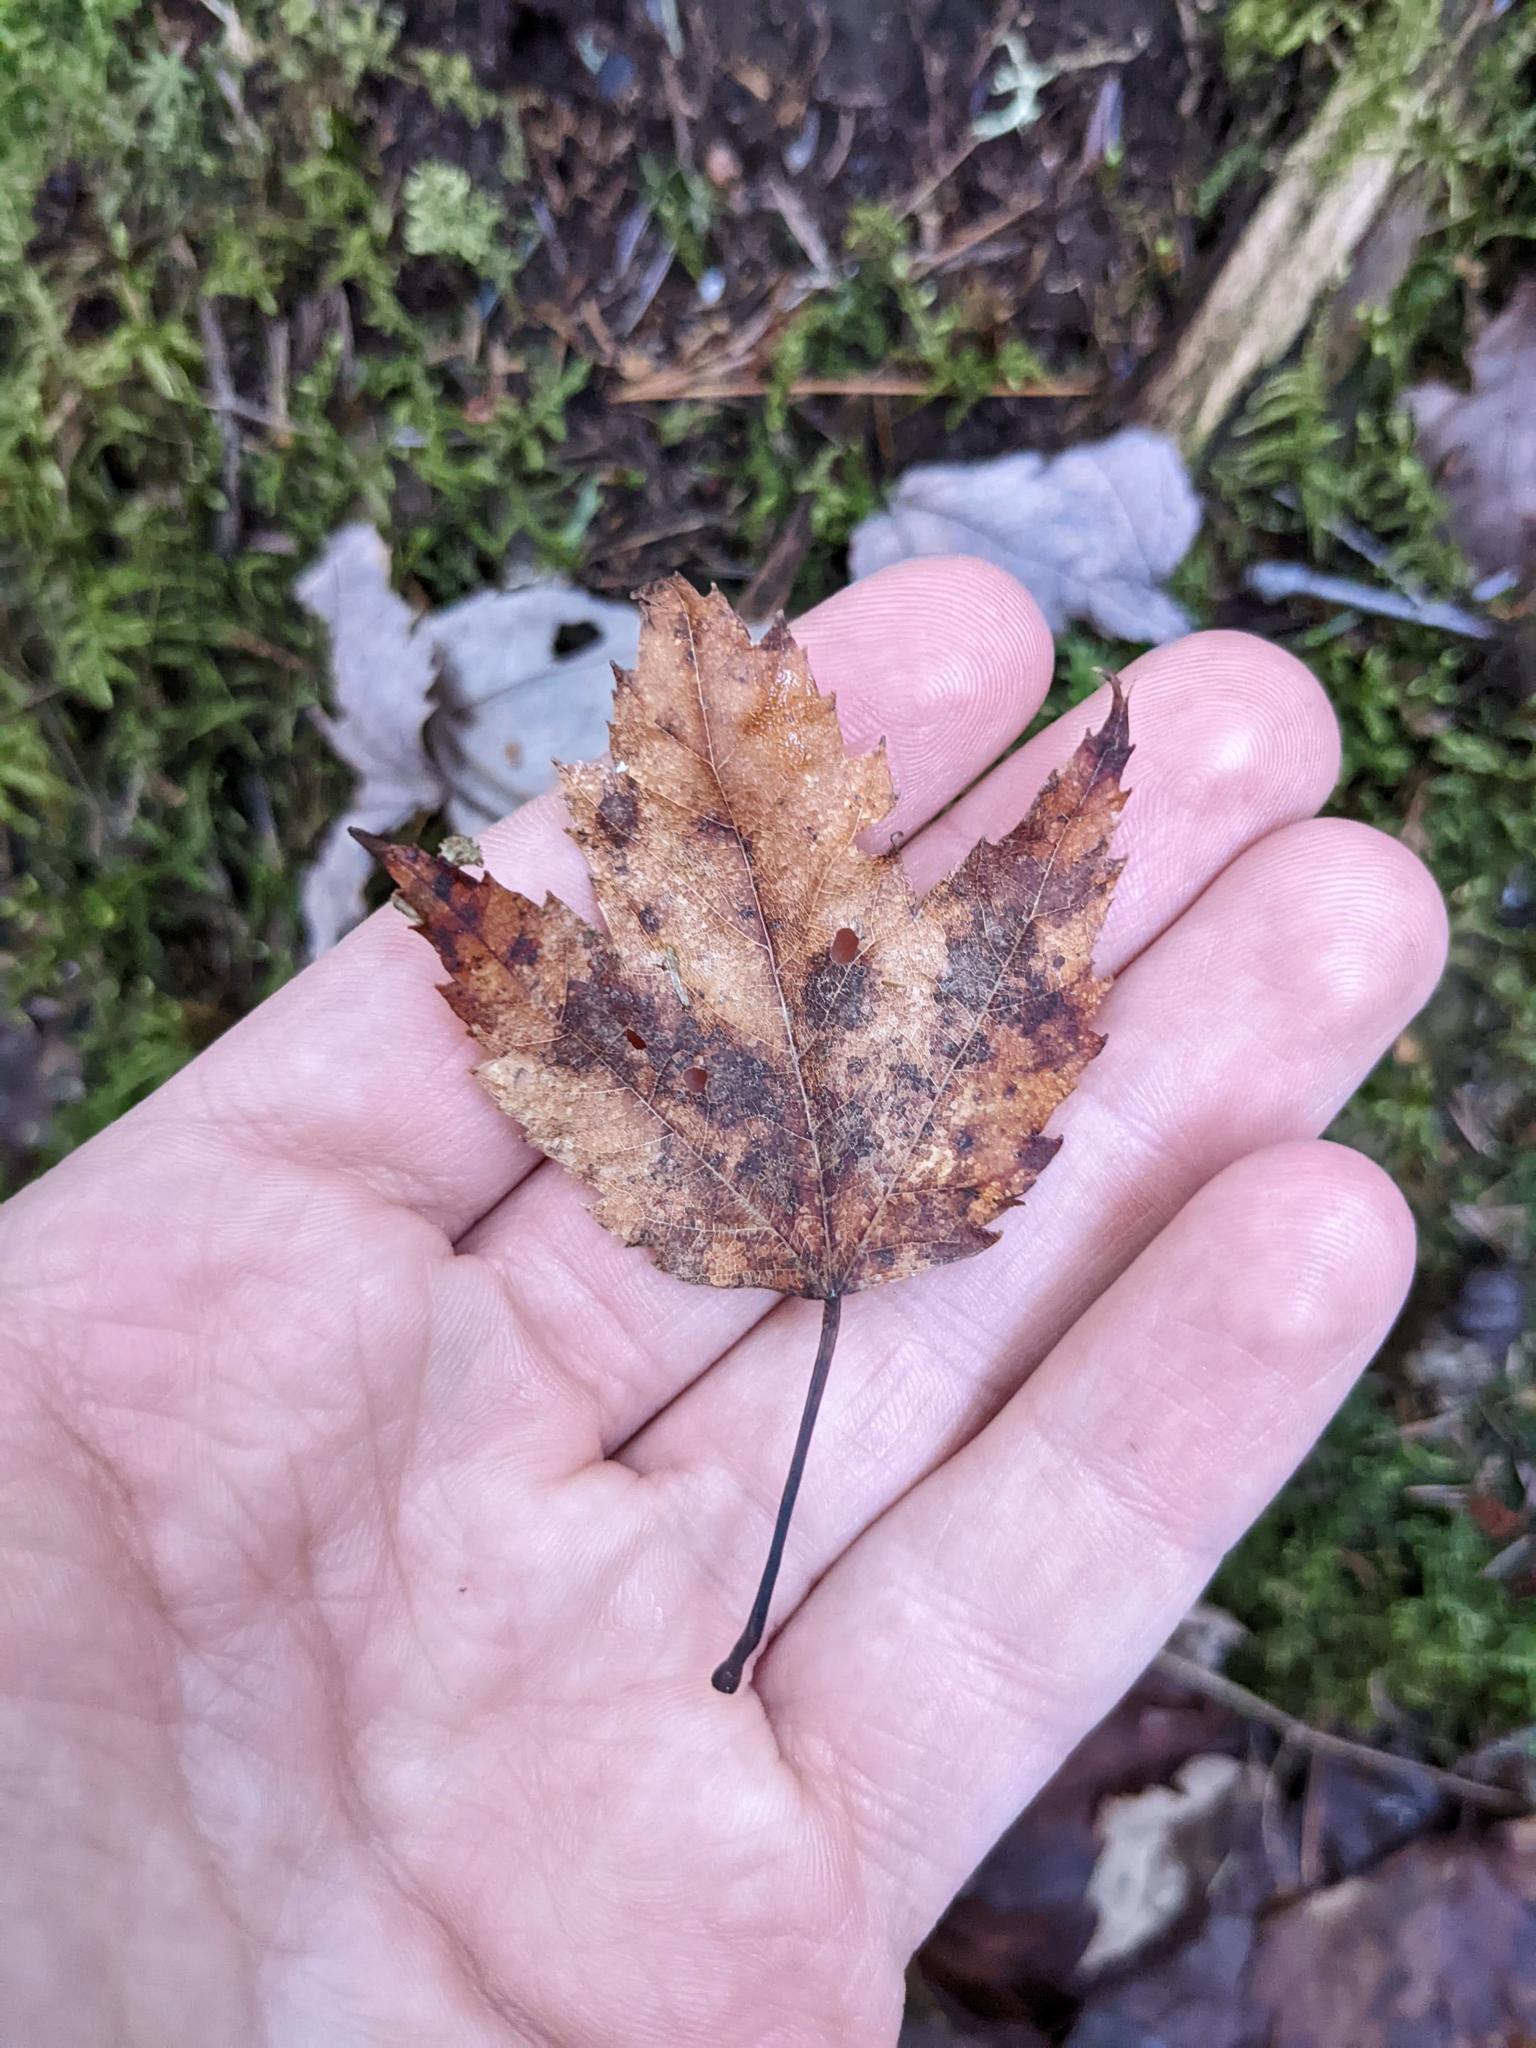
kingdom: Plantae
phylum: Tracheophyta
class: Magnoliopsida
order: Sapindales
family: Sapindaceae
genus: Acer
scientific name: Acer rubrum
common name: Red maple
